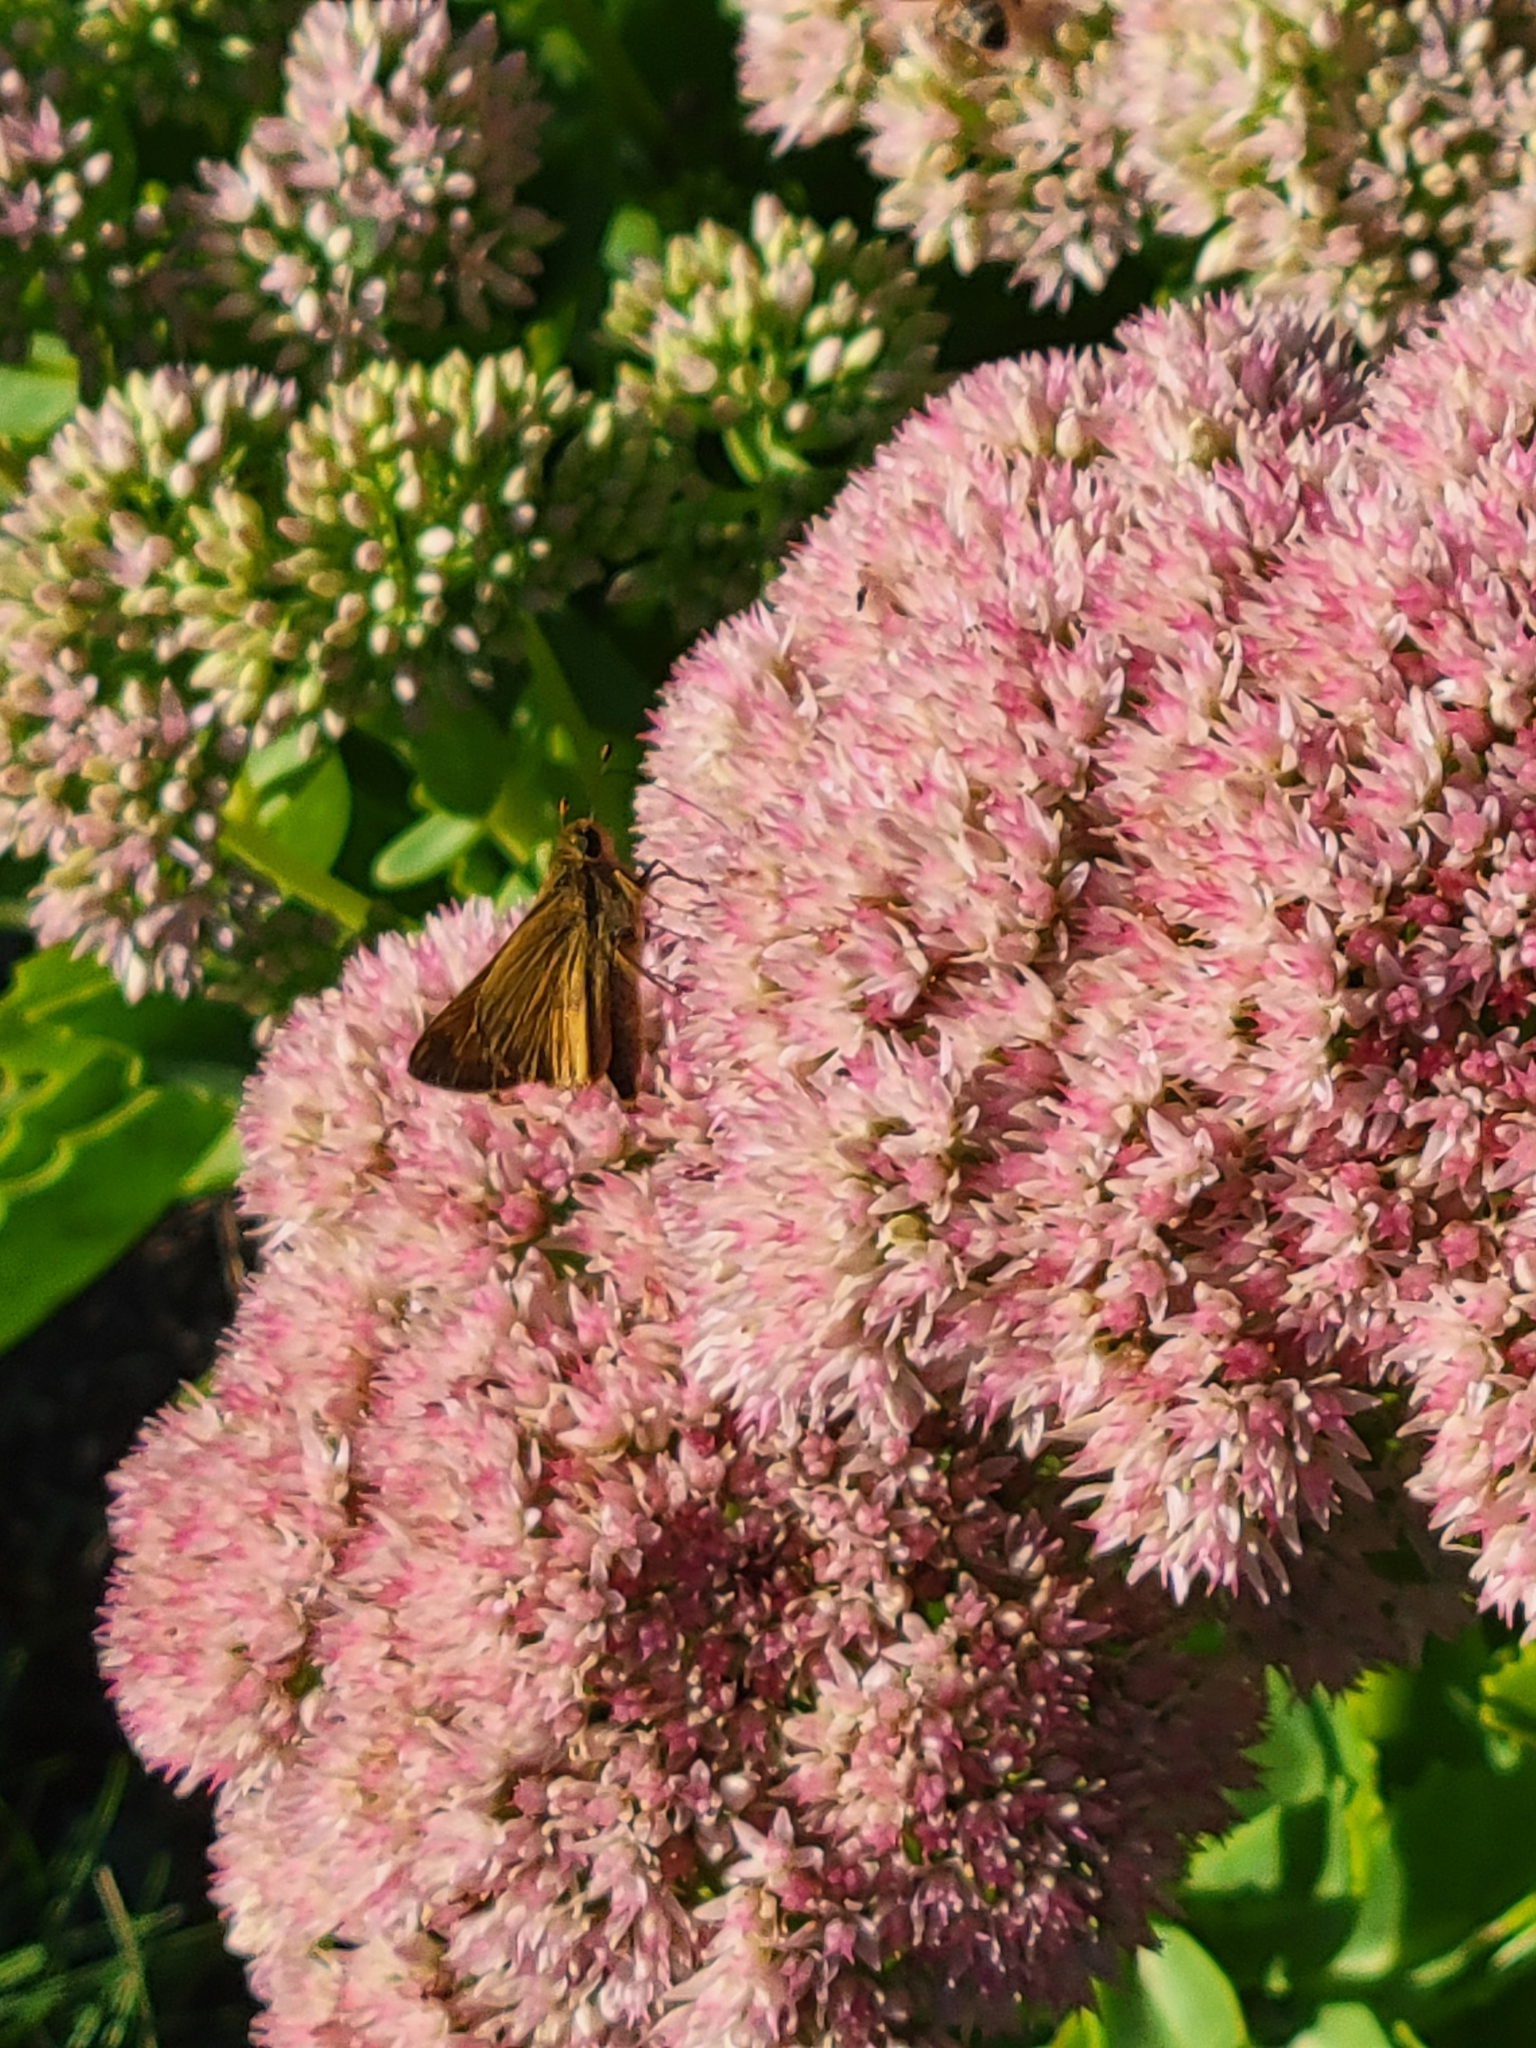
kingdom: Animalia
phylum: Arthropoda
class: Insecta
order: Lepidoptera
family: Hesperiidae
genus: Atalopedes
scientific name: Atalopedes
